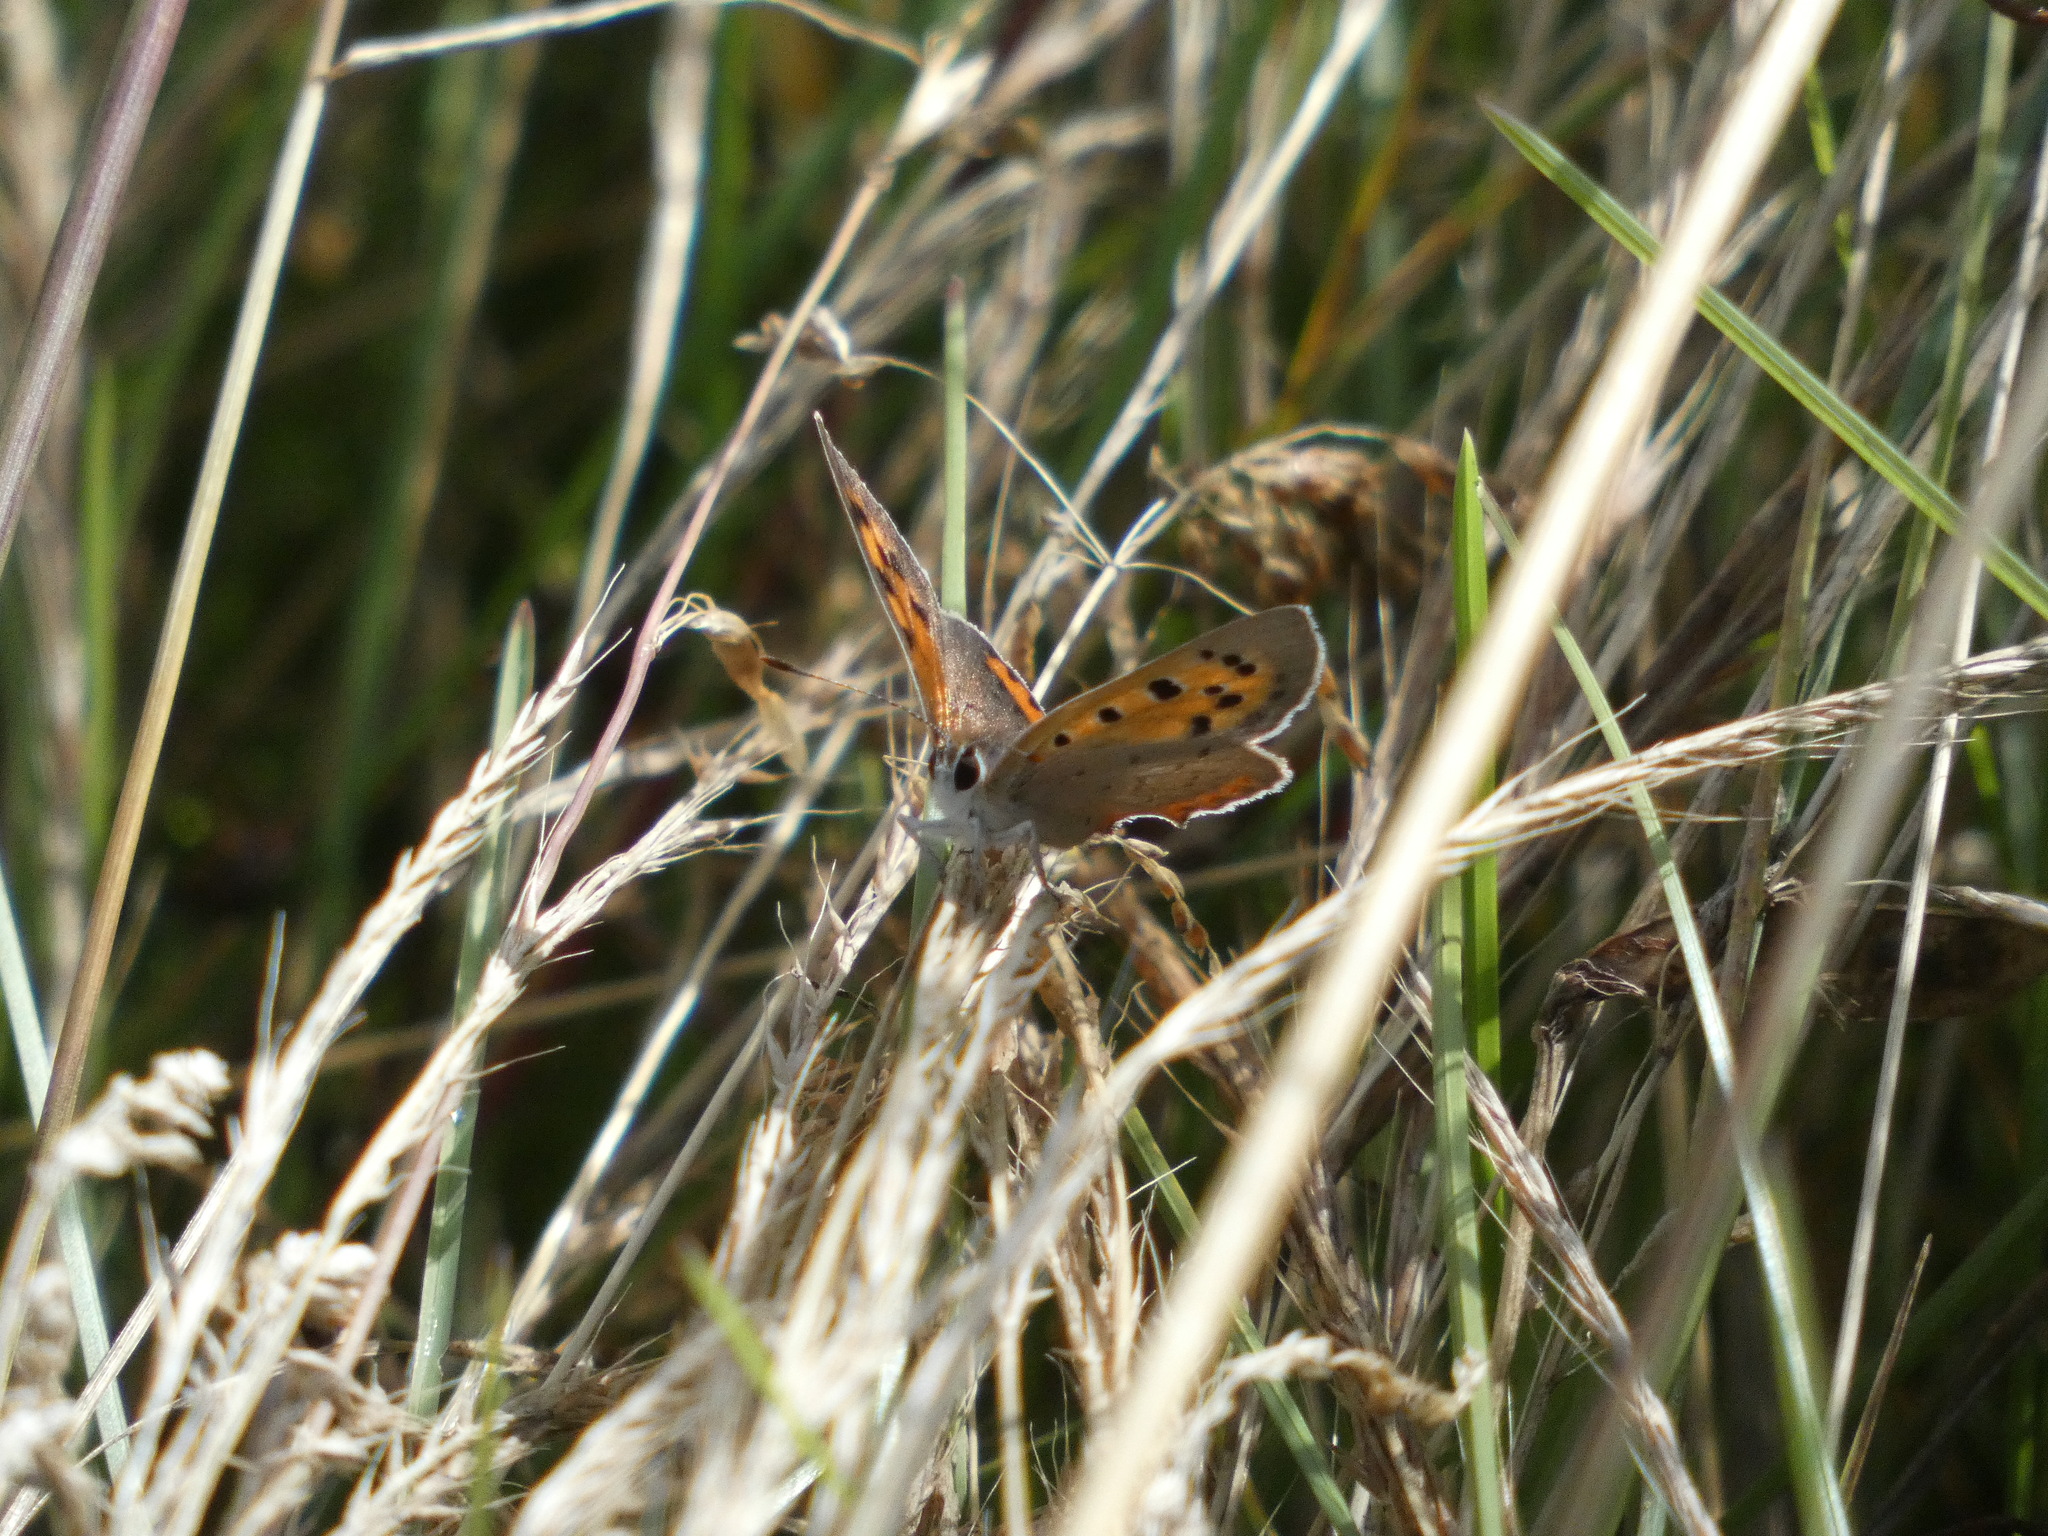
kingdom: Animalia
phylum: Arthropoda
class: Insecta
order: Lepidoptera
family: Lycaenidae
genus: Lycaena
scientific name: Lycaena phlaeas
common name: Small copper
